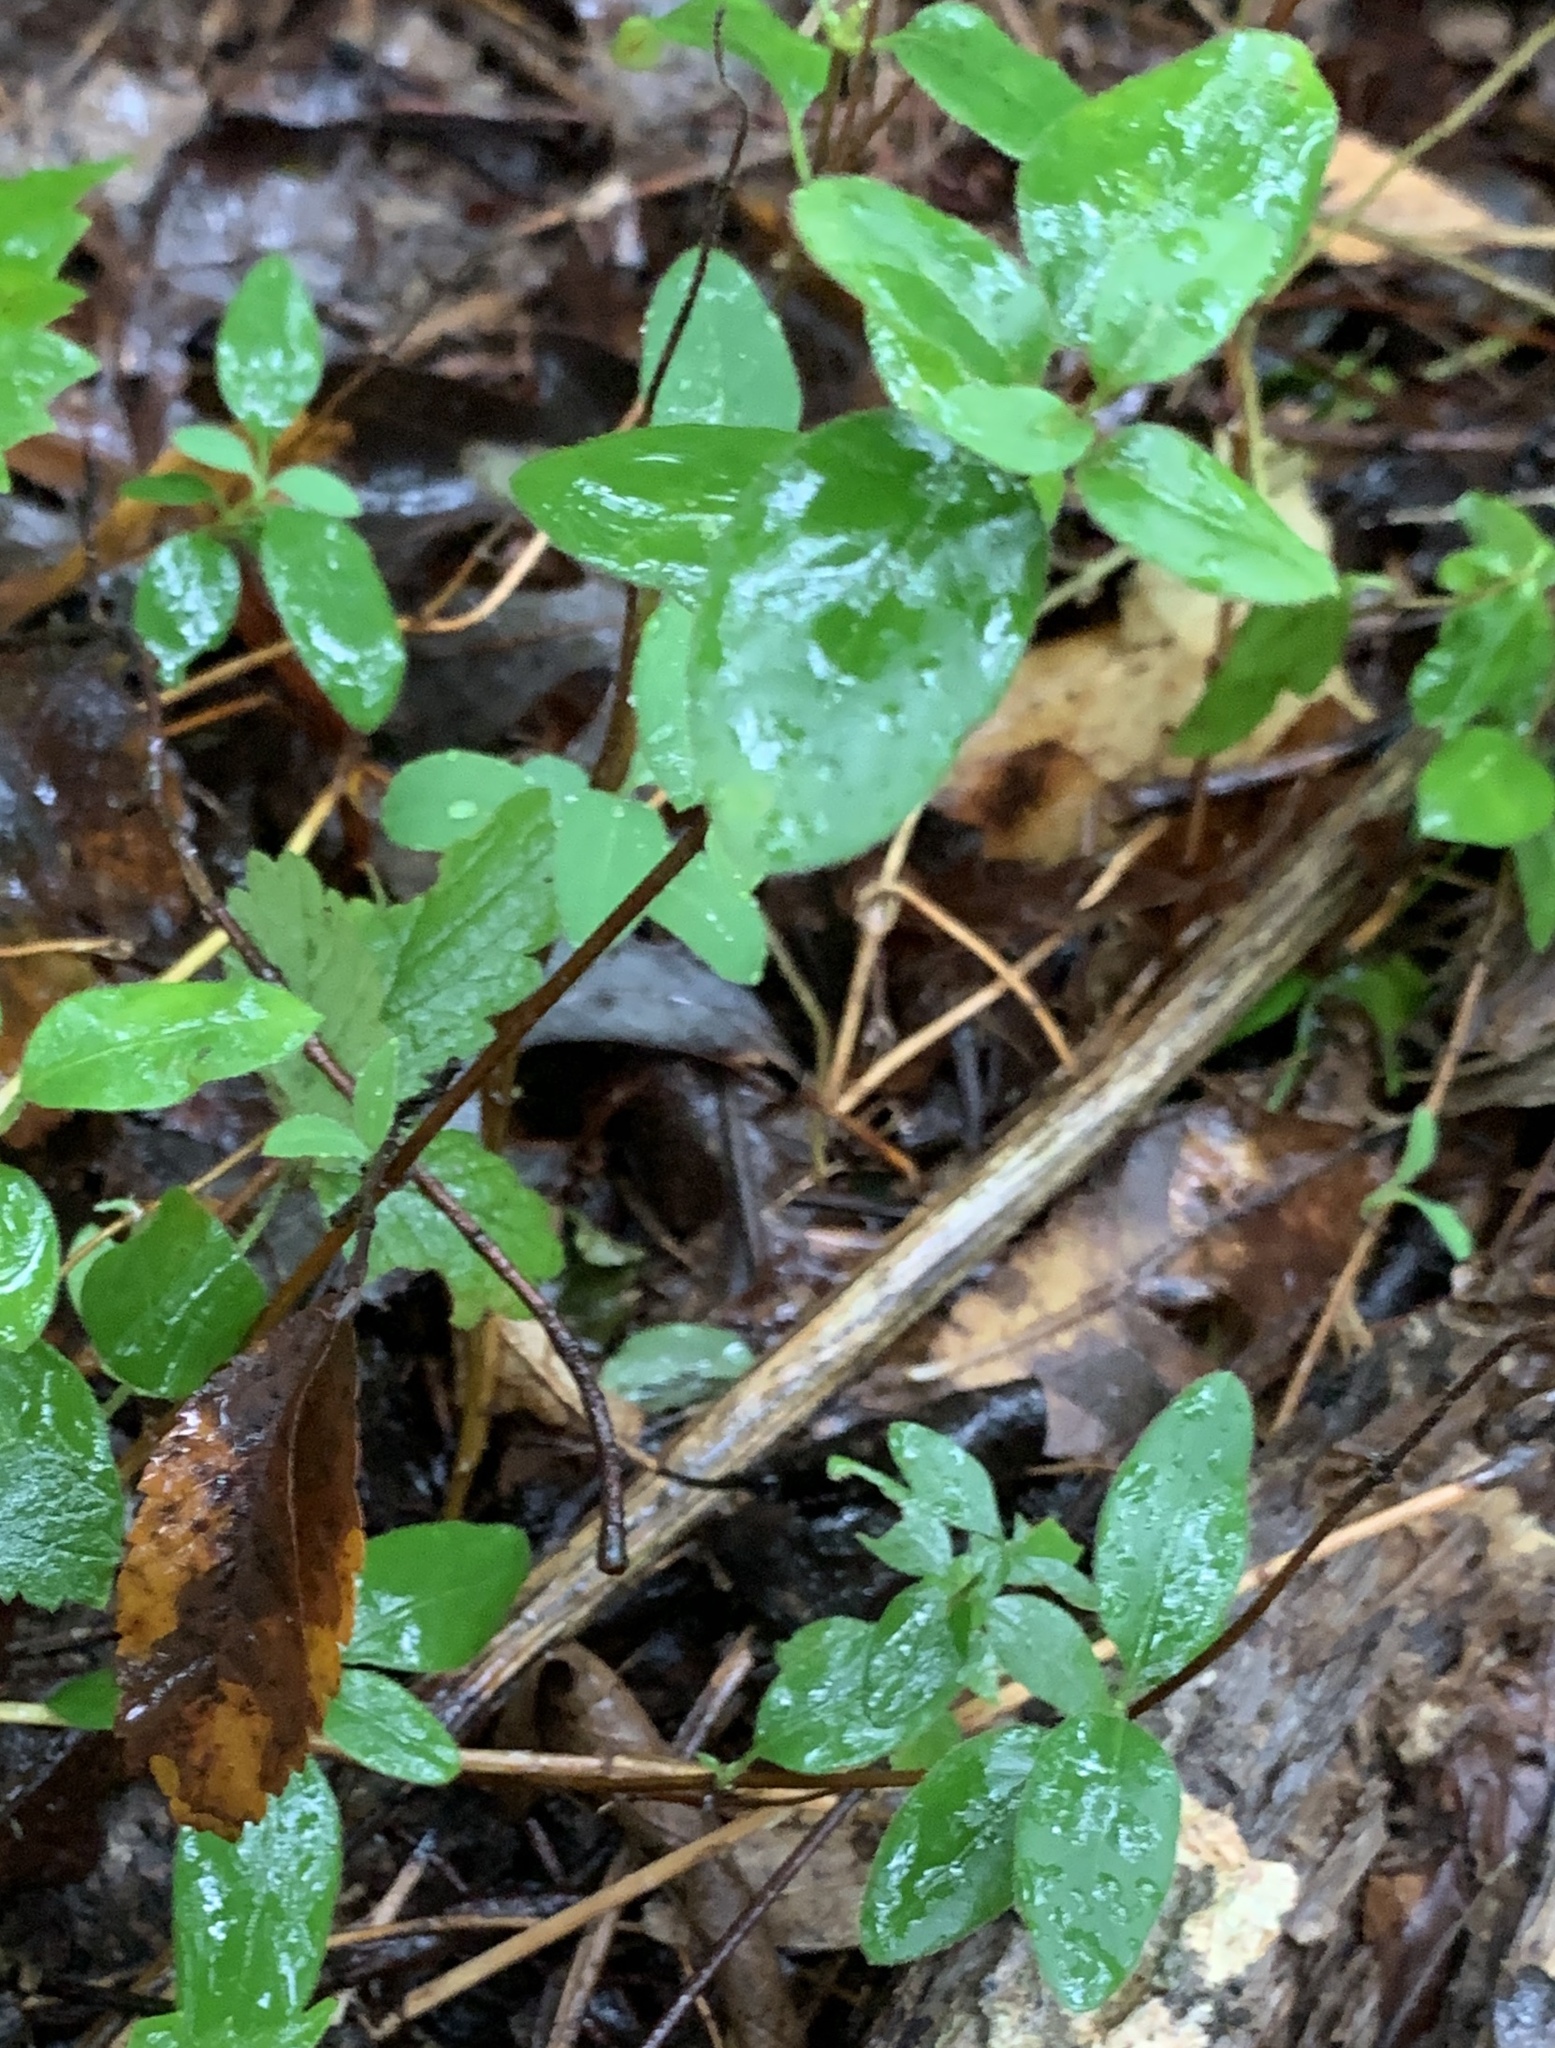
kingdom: Plantae
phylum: Tracheophyta
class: Magnoliopsida
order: Dipsacales
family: Caprifoliaceae
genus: Lonicera
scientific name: Lonicera japonica
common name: Japanese honeysuckle
